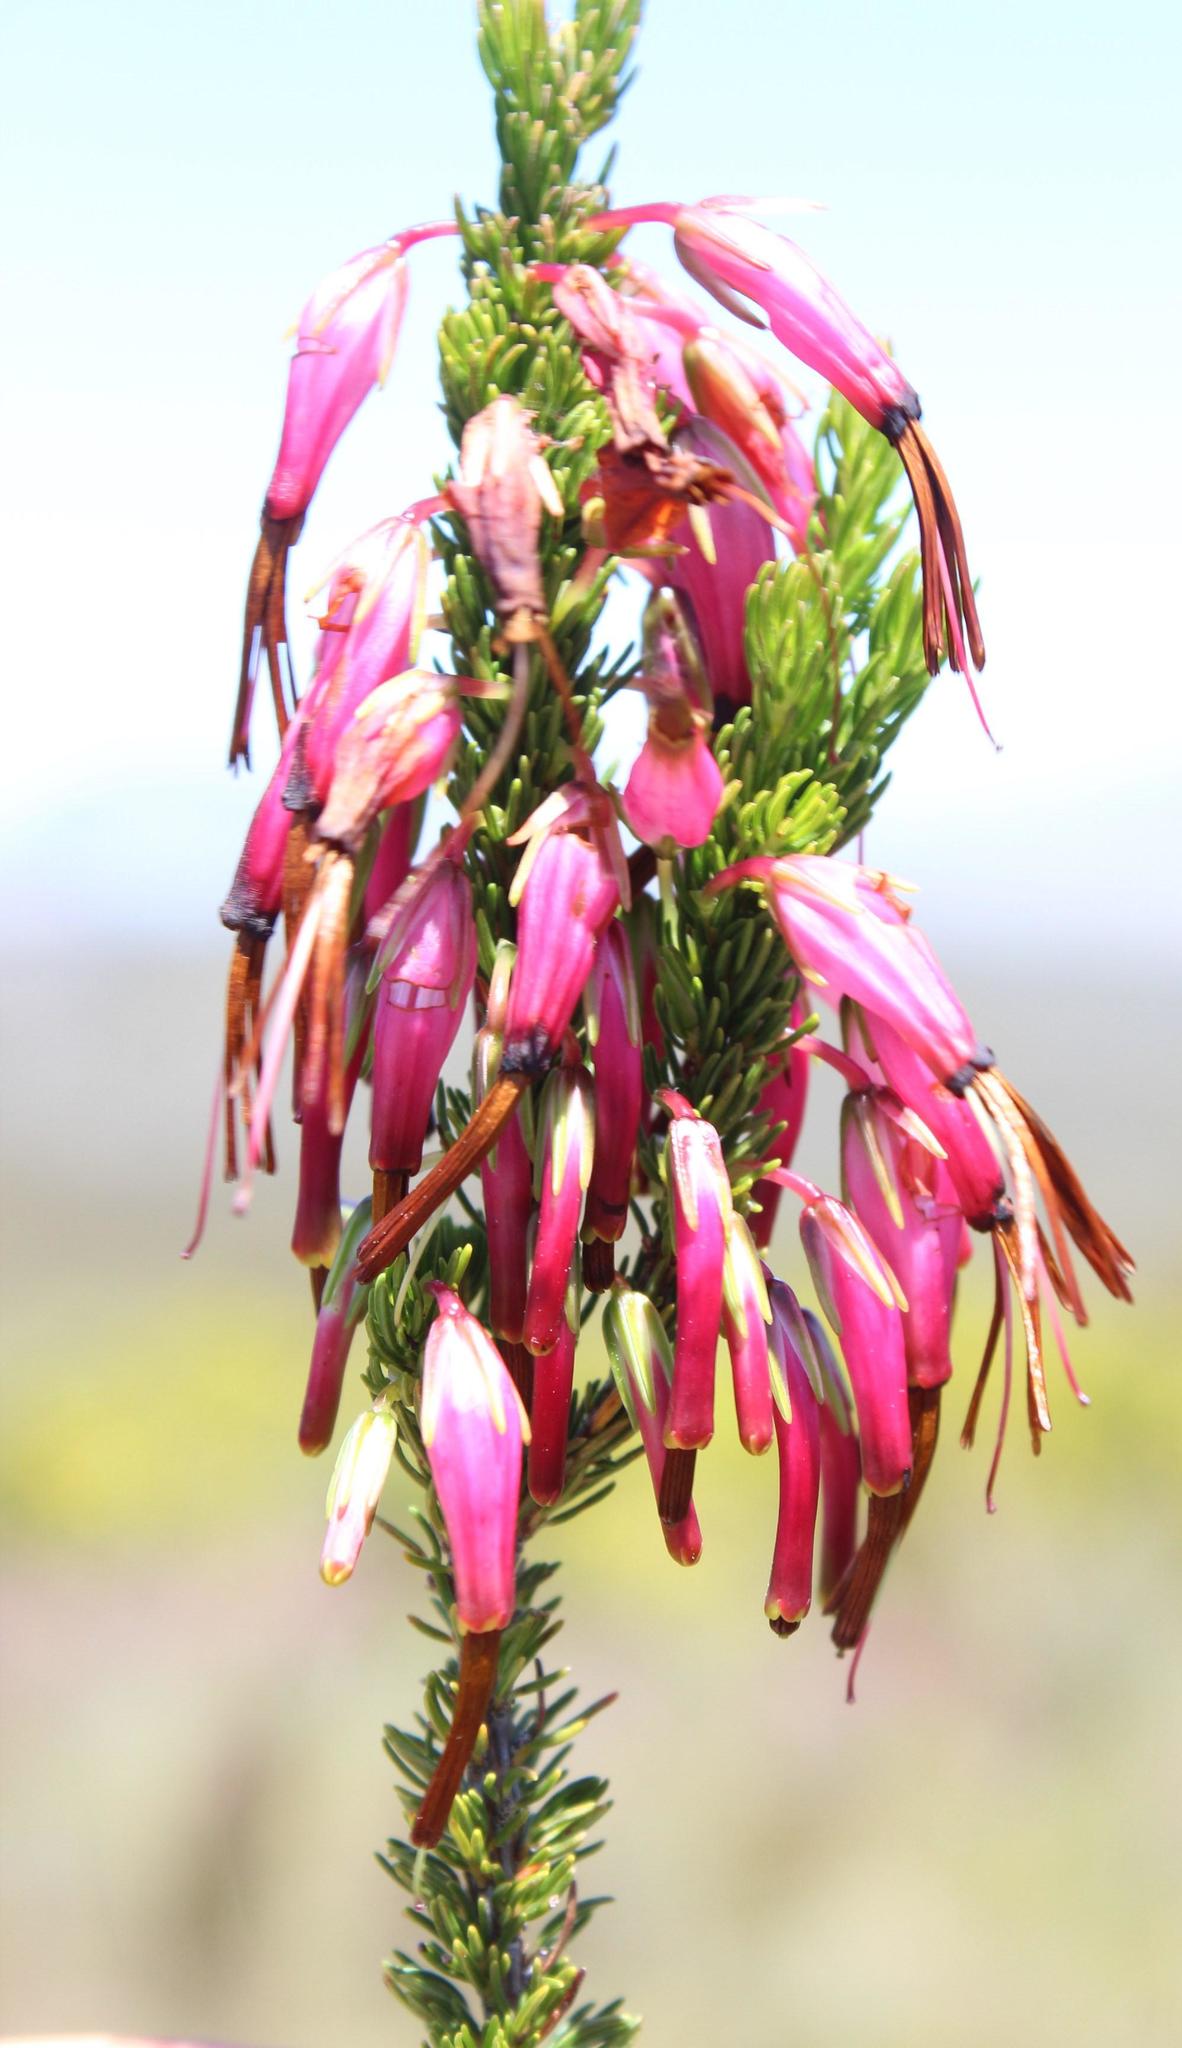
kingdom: Plantae
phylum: Tracheophyta
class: Magnoliopsida
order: Ericales
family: Ericaceae
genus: Erica
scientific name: Erica plukenetii
